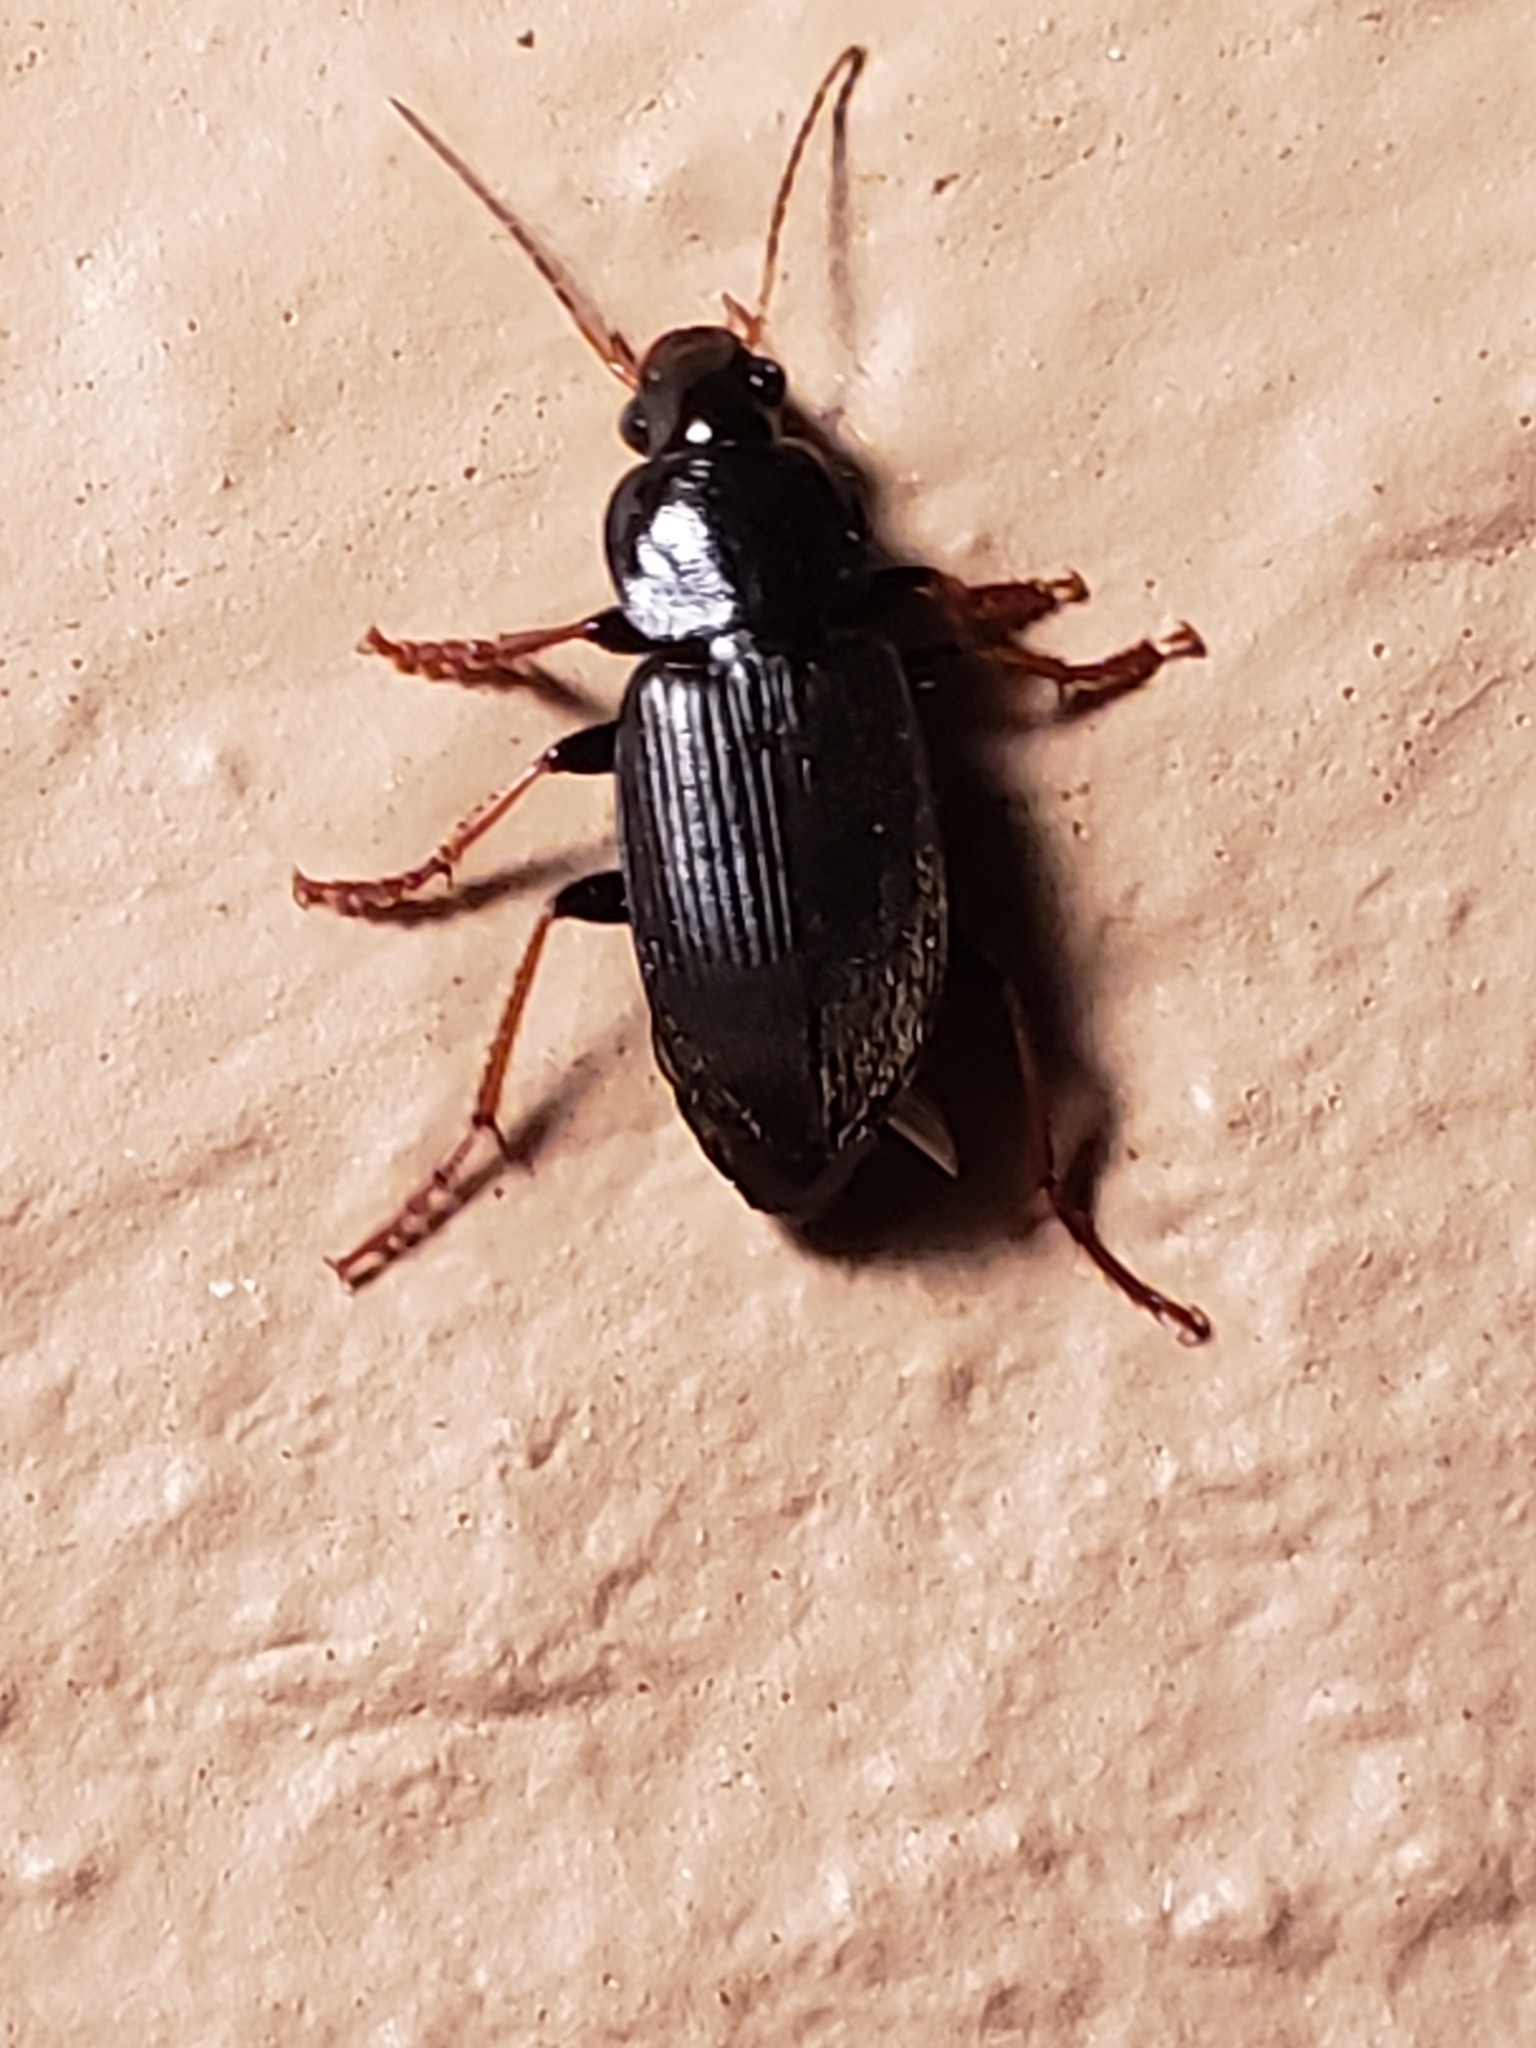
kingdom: Animalia
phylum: Arthropoda
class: Insecta
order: Coleoptera
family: Carabidae
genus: Amphasia
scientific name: Amphasia sericea
